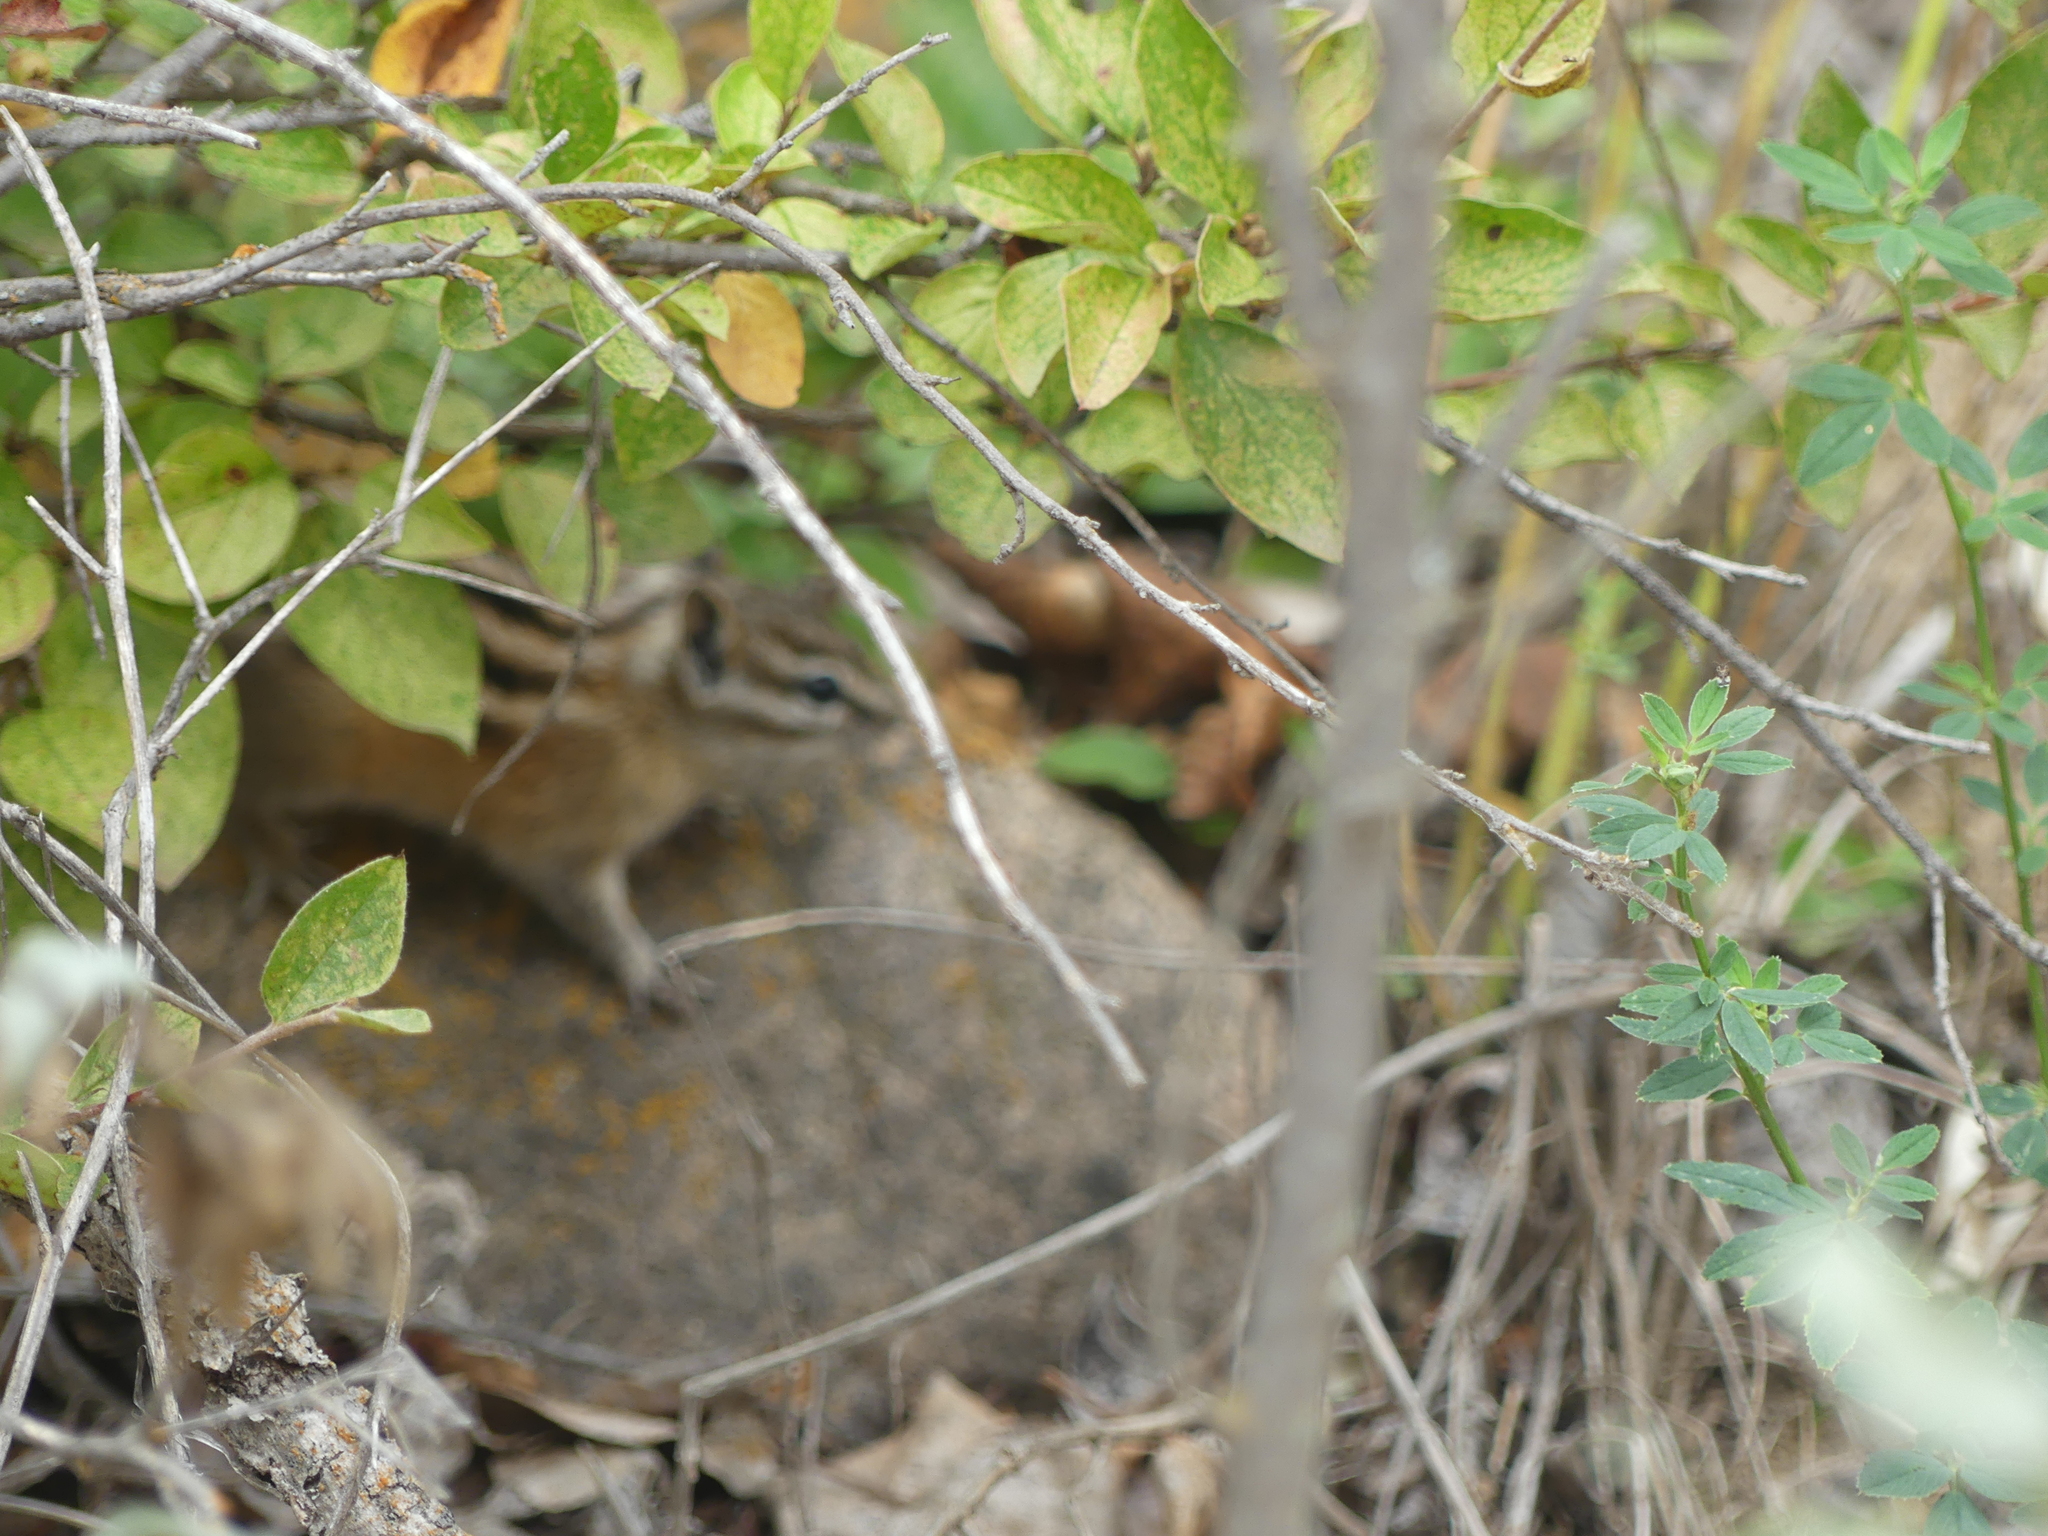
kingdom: Animalia
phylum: Chordata
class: Mammalia
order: Rodentia
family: Sciuridae
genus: Tamias
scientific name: Tamias minimus
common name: Least chipmunk
